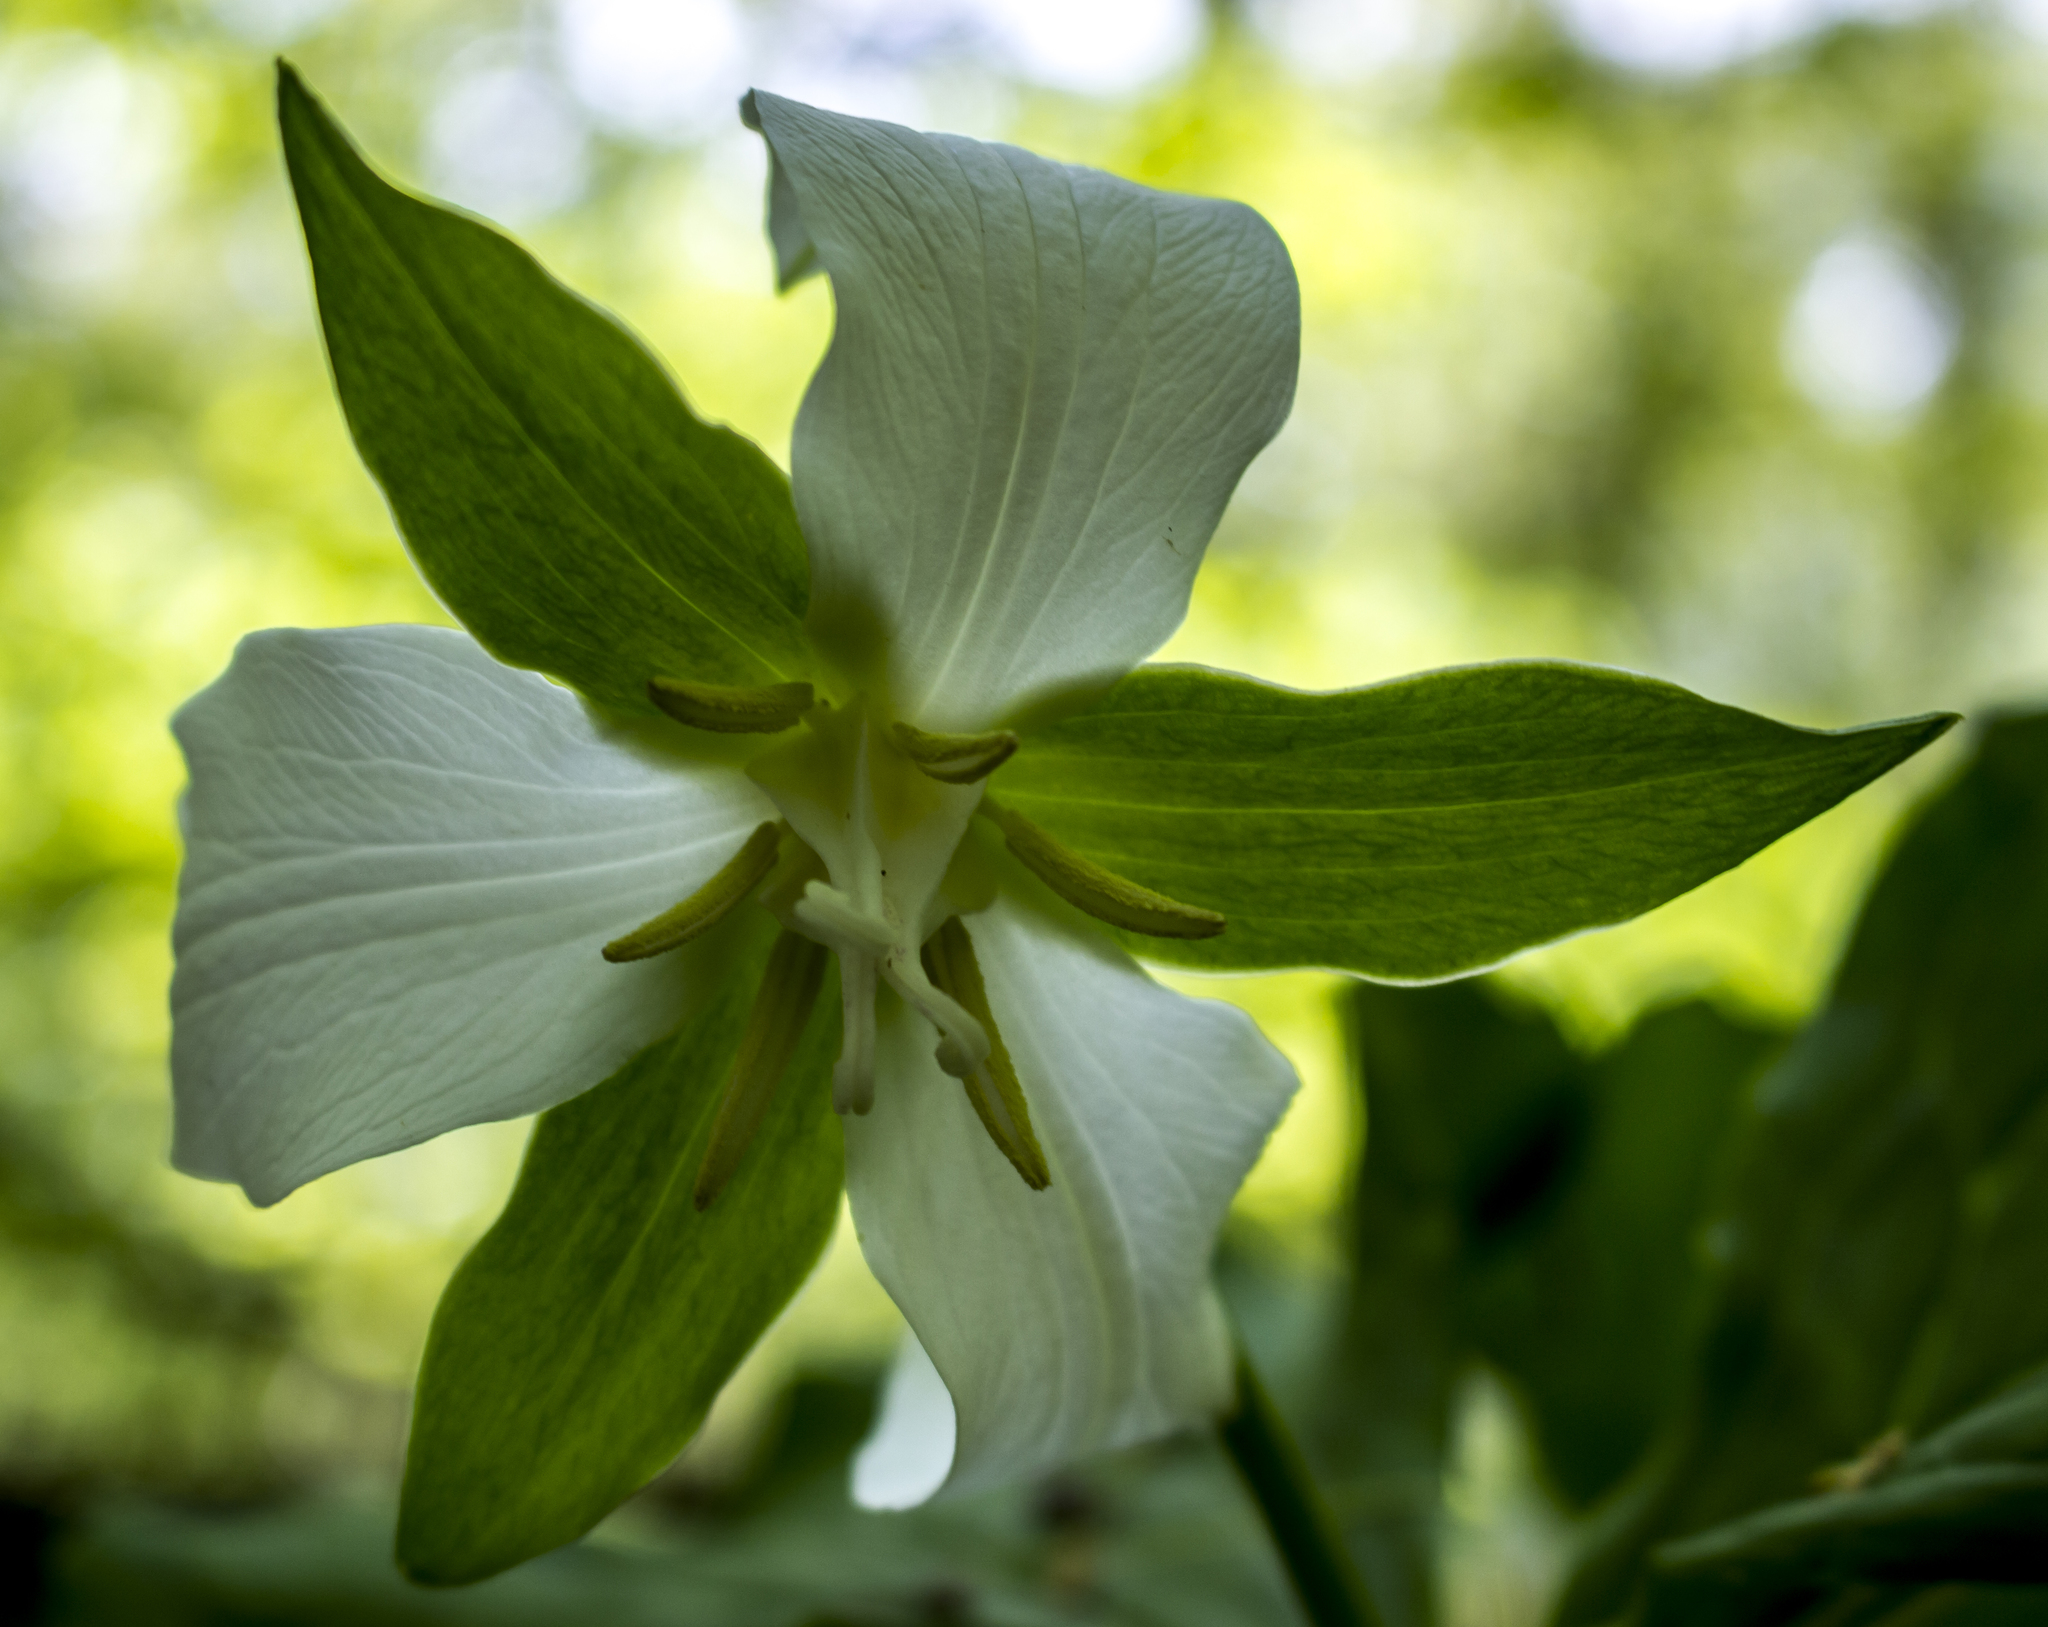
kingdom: Plantae
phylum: Tracheophyta
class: Liliopsida
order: Liliales
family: Melanthiaceae
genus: Trillium
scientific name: Trillium flexipes
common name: Drooping trillium
